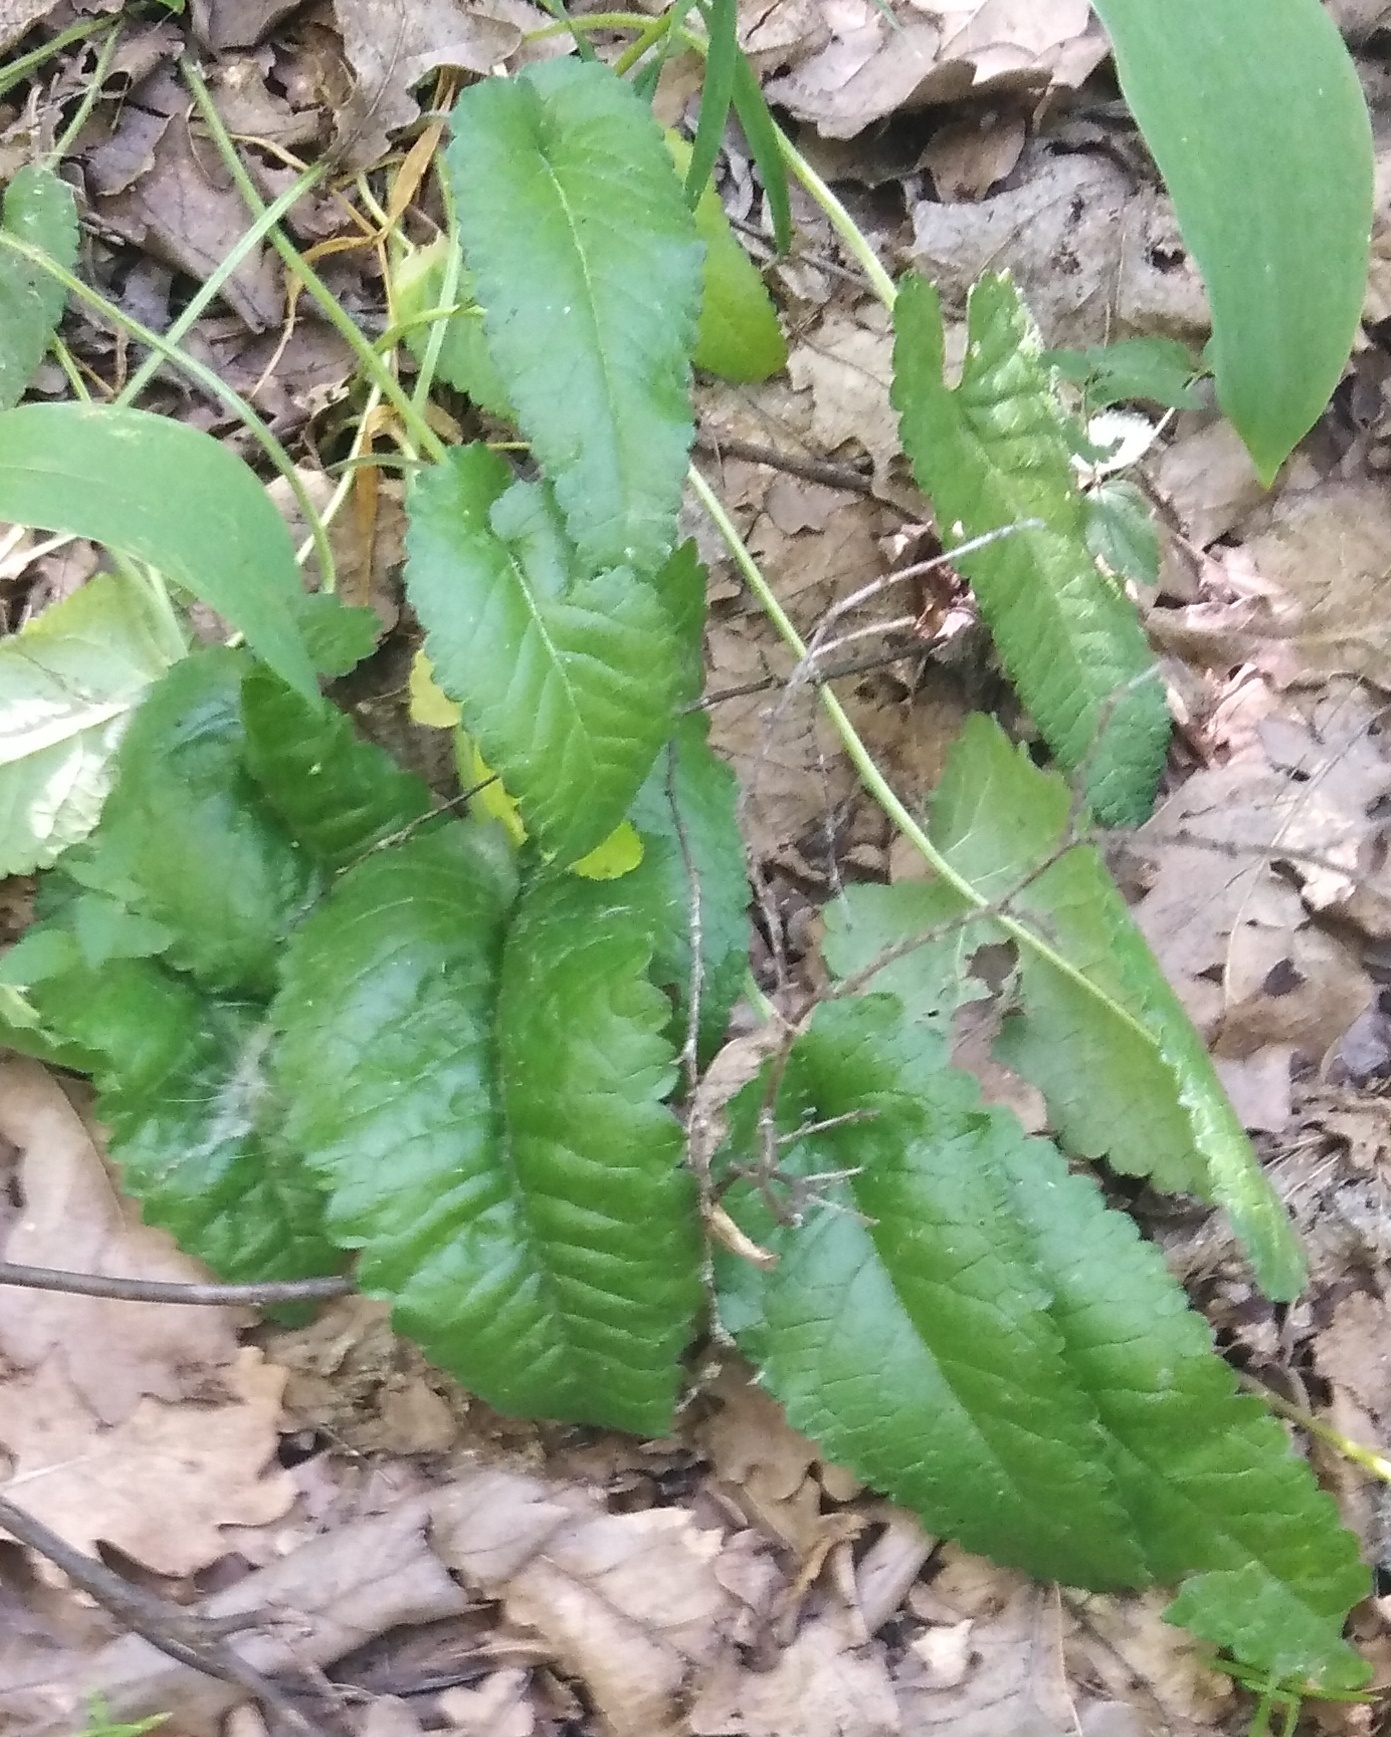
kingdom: Plantae
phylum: Tracheophyta
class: Magnoliopsida
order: Lamiales
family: Lamiaceae
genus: Betonica
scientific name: Betonica officinalis
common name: Bishop's-wort
